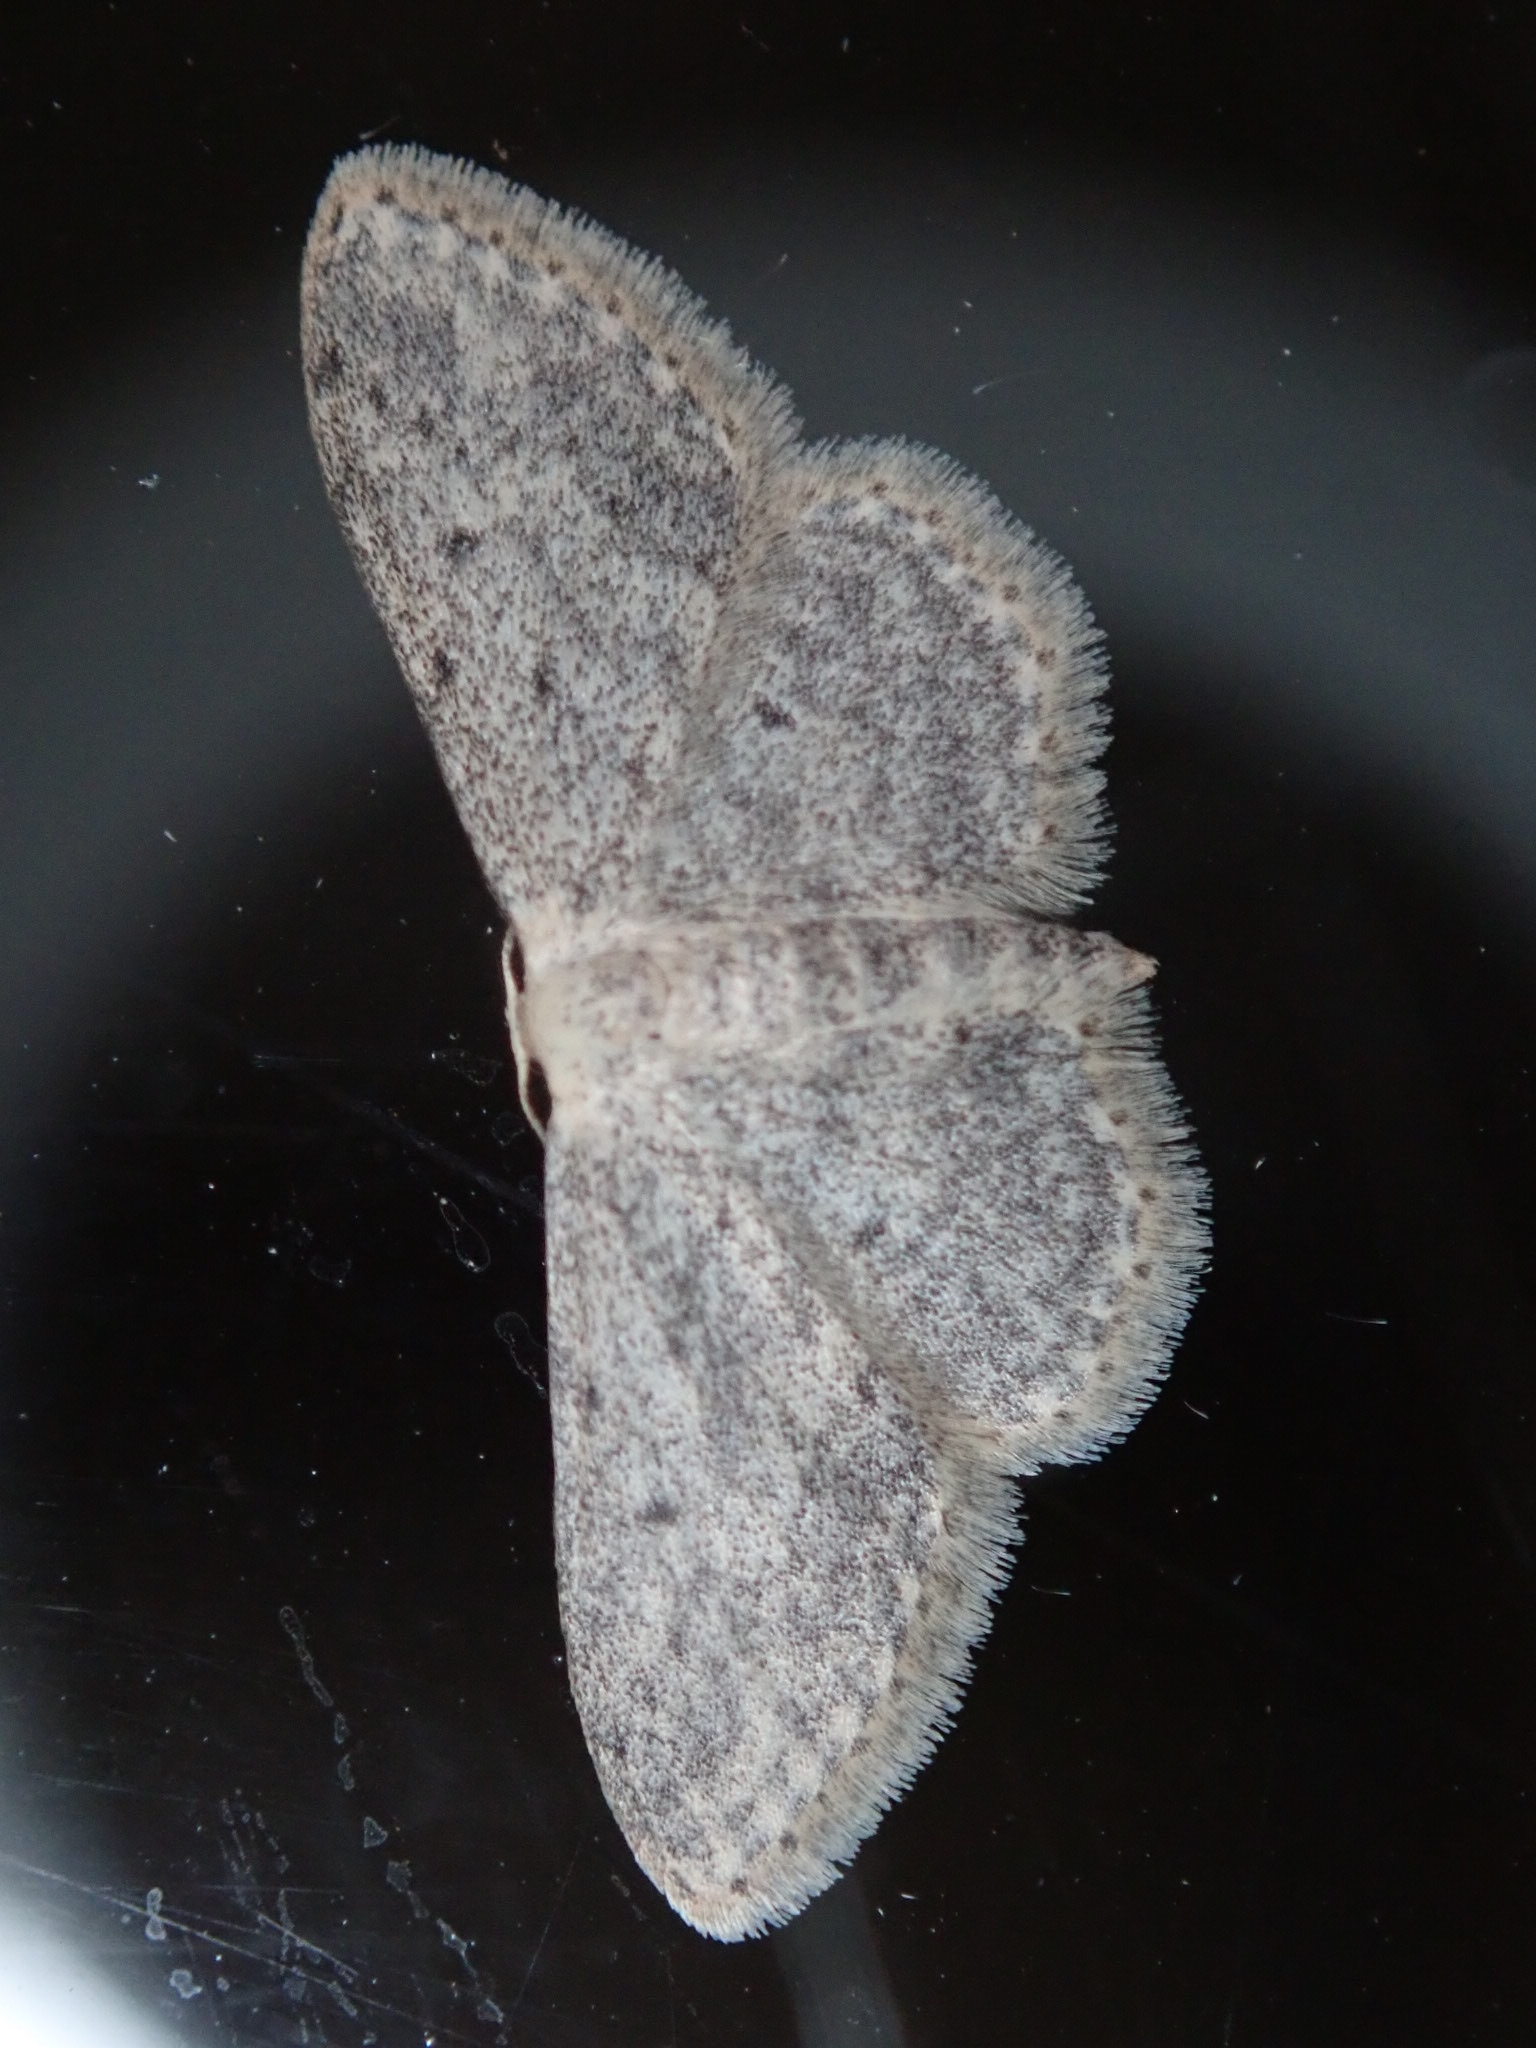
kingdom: Animalia
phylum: Arthropoda
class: Insecta
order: Lepidoptera
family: Geometridae
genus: Idaea
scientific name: Idaea seriata
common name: Small dusty wave
